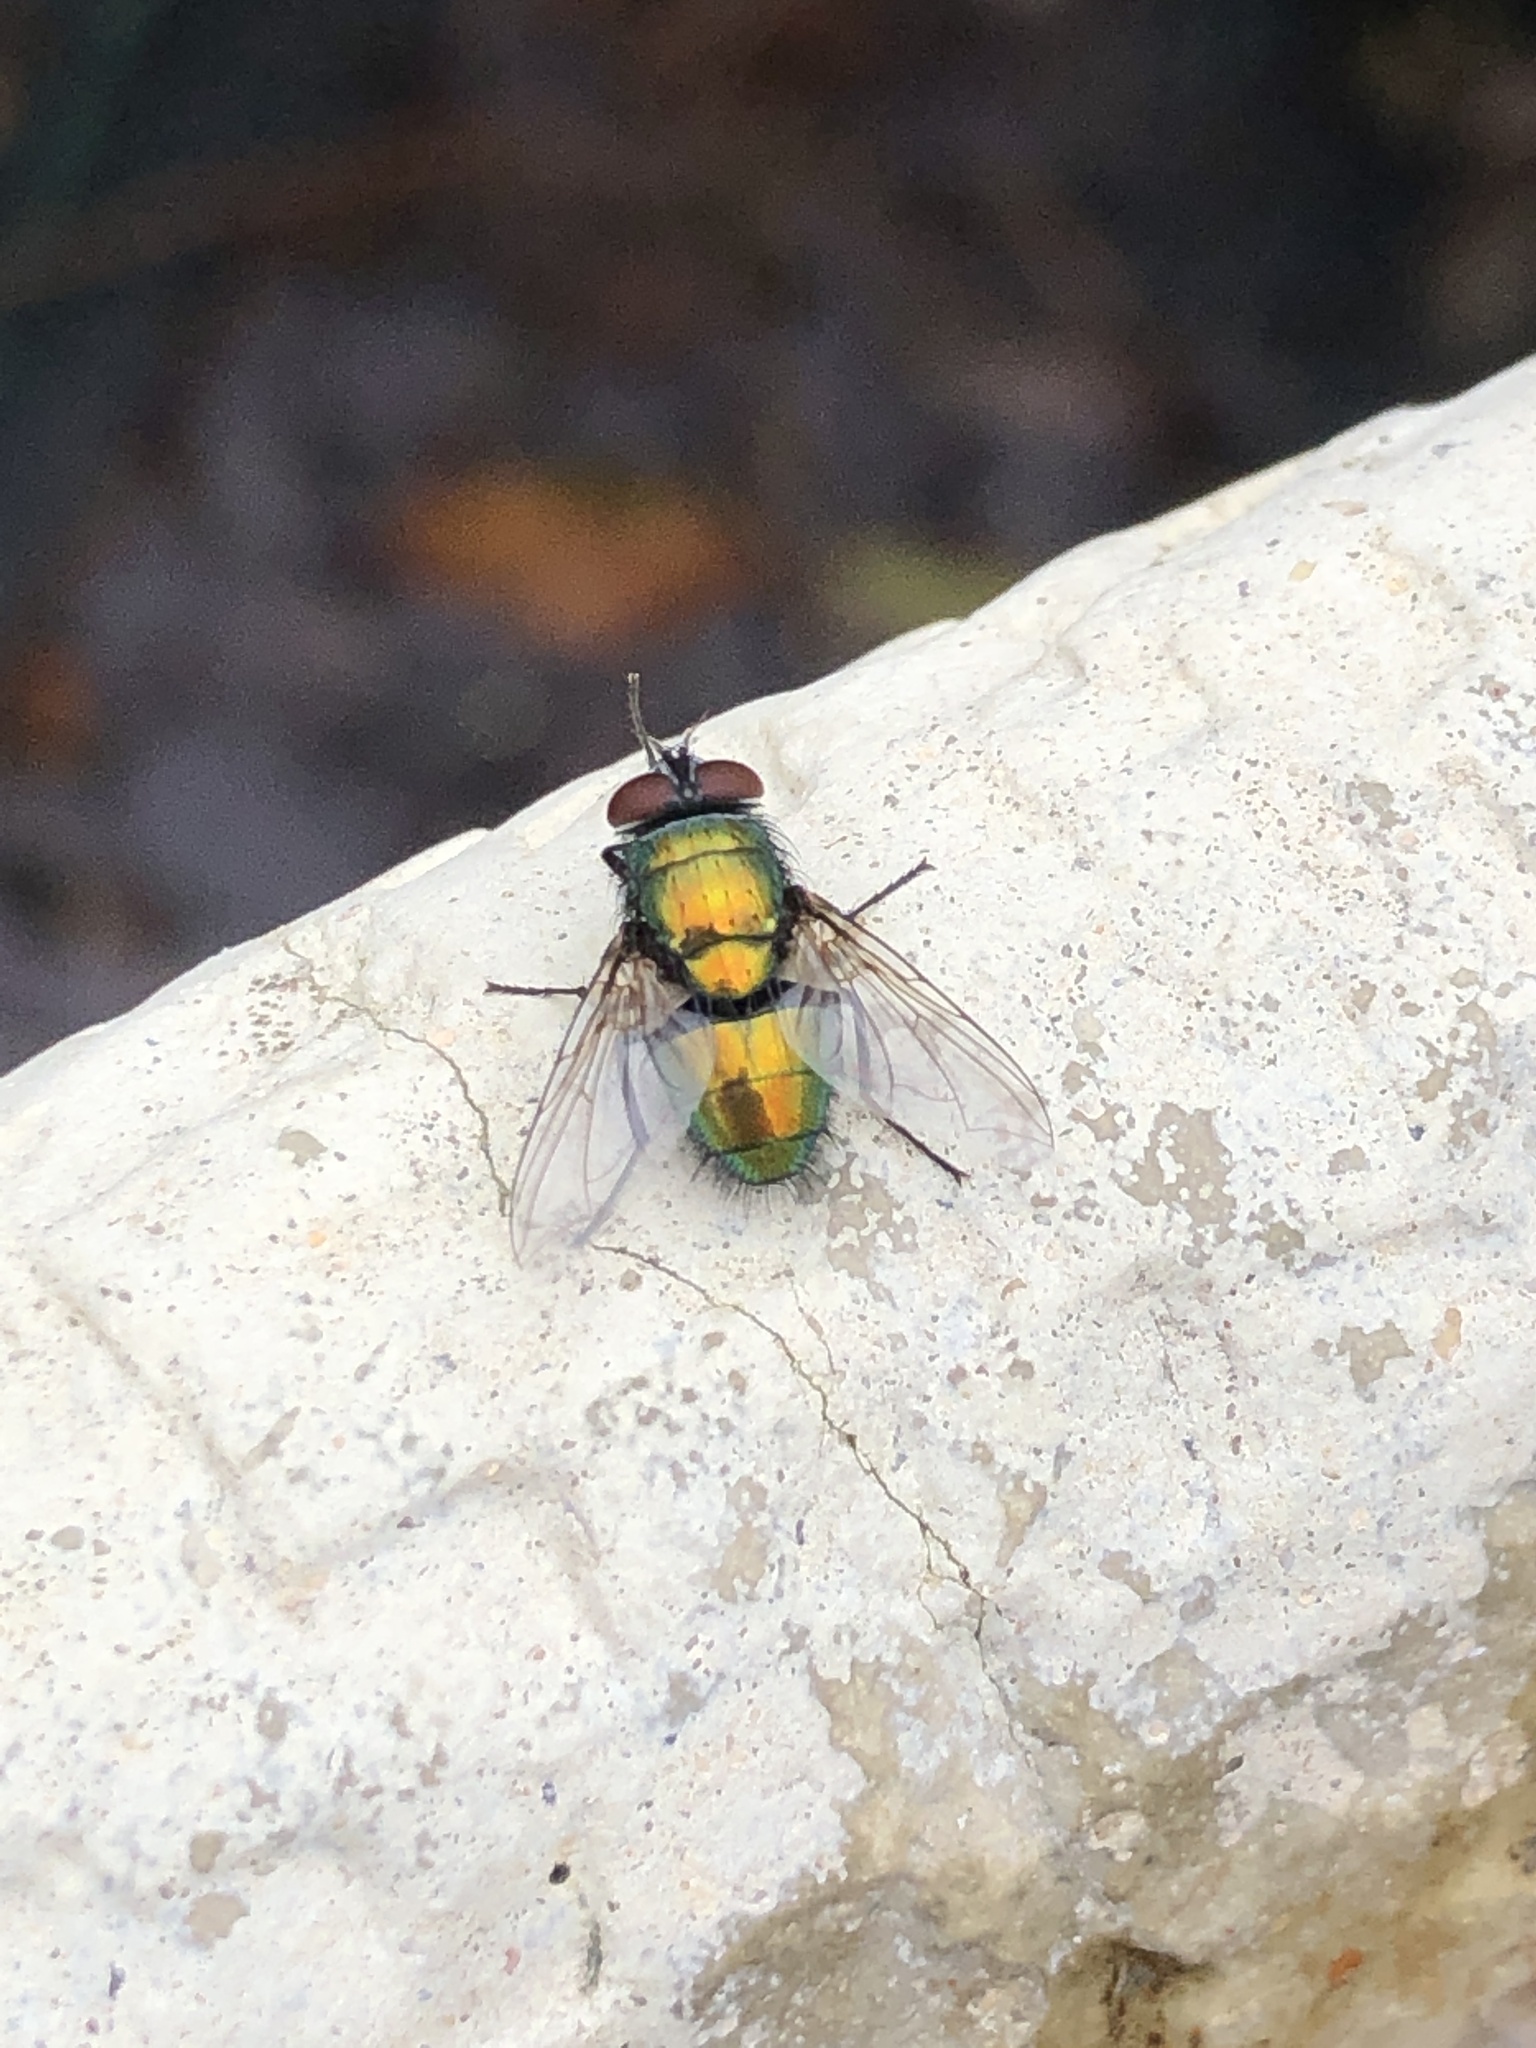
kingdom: Animalia
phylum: Arthropoda
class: Insecta
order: Diptera
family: Calliphoridae
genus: Lucilia
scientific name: Lucilia
